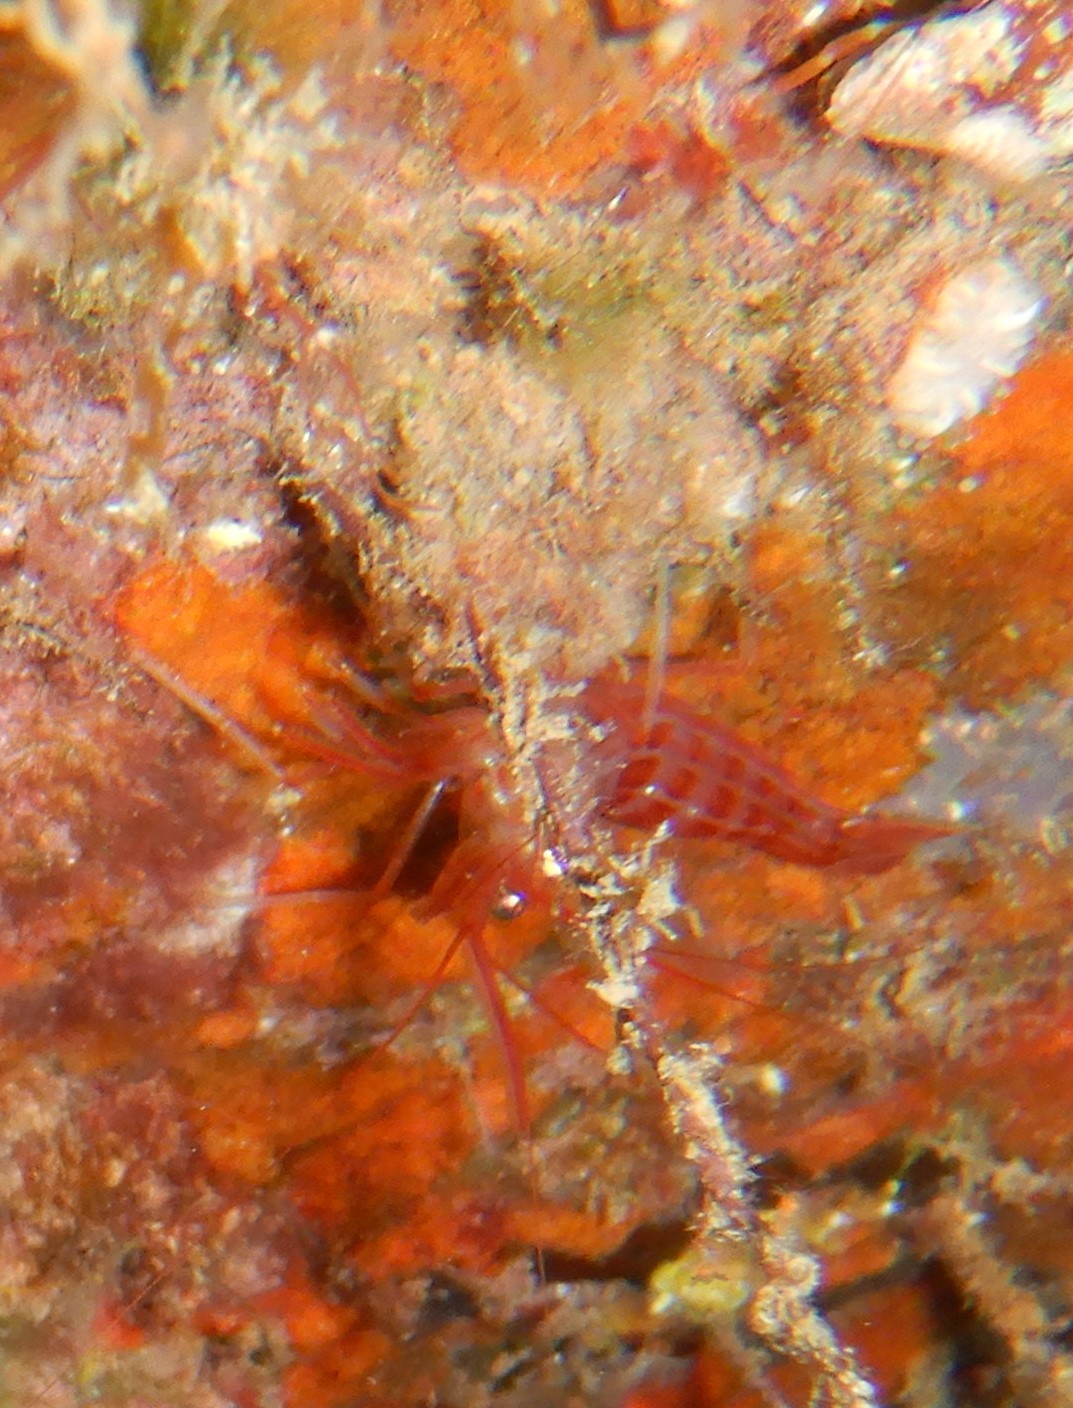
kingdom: Animalia
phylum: Arthropoda
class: Malacostraca
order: Decapoda
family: Lysmatidae
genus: Lysmata
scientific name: Lysmata seticaudata
